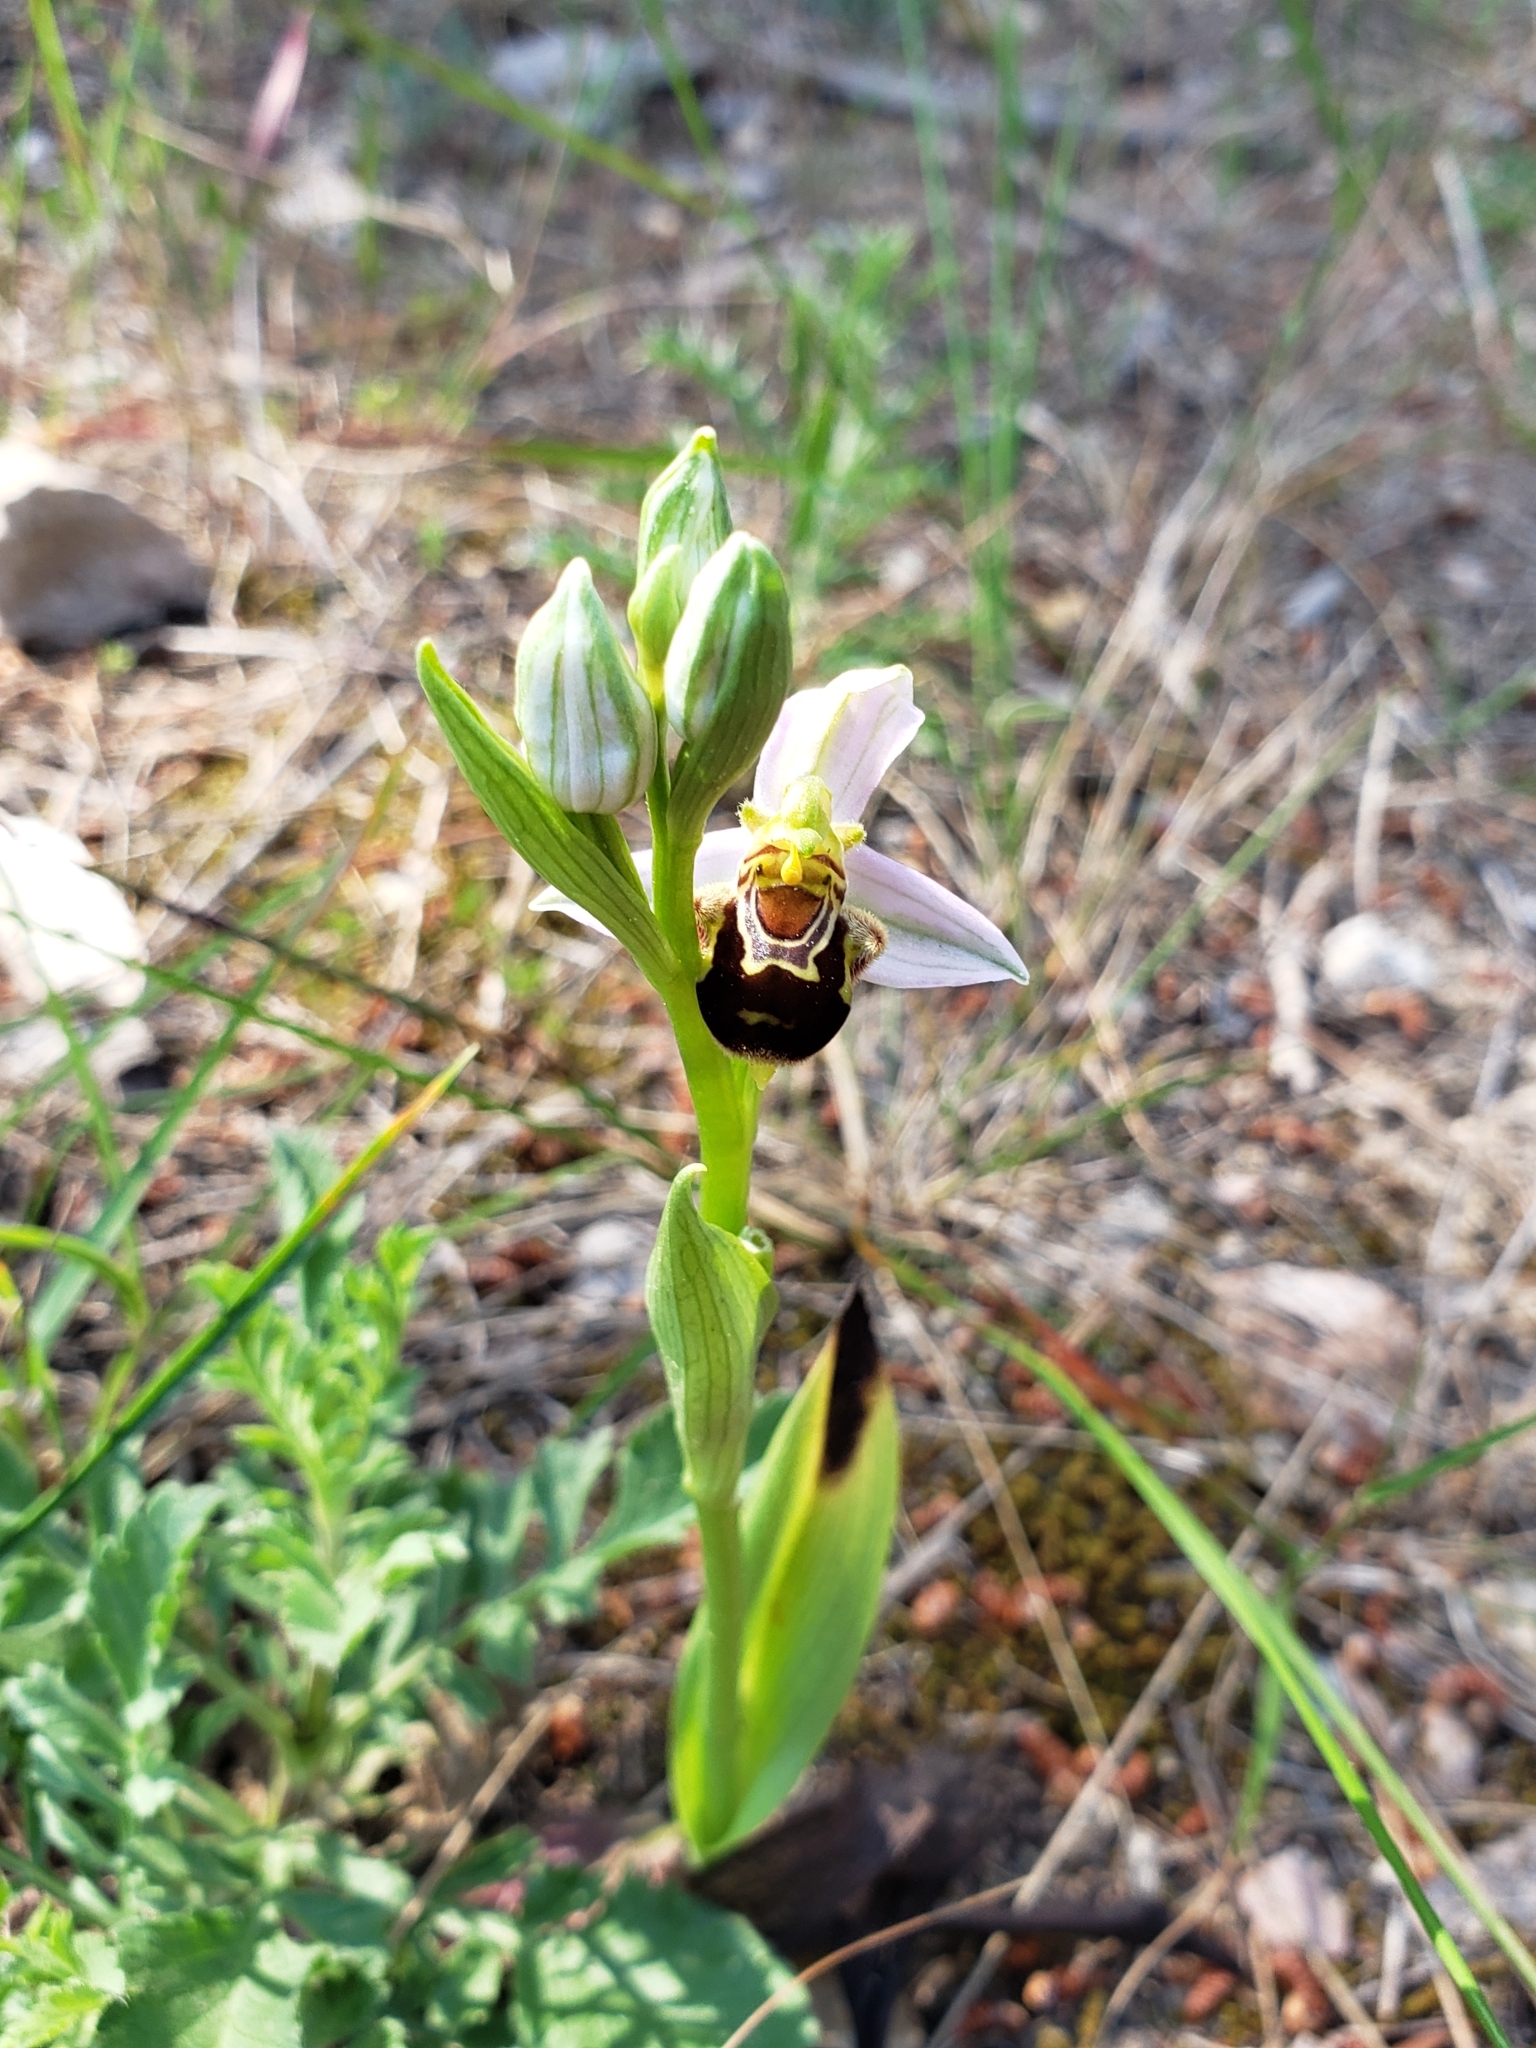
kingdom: Plantae
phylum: Tracheophyta
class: Liliopsida
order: Asparagales
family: Orchidaceae
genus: Ophrys
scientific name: Ophrys apifera
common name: Bee orchid
